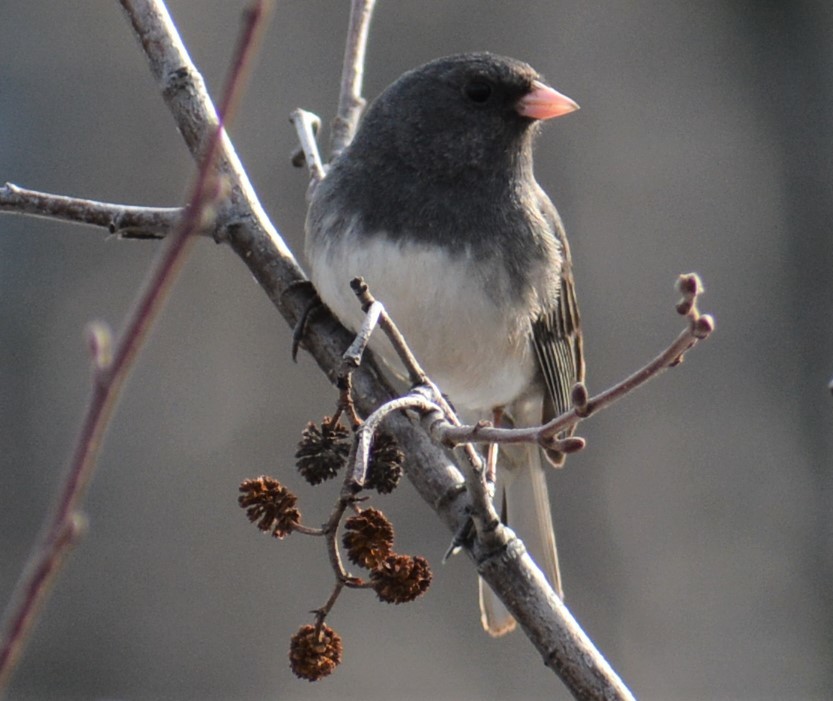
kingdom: Animalia
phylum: Chordata
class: Aves
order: Passeriformes
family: Passerellidae
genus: Junco
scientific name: Junco hyemalis
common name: Dark-eyed junco
